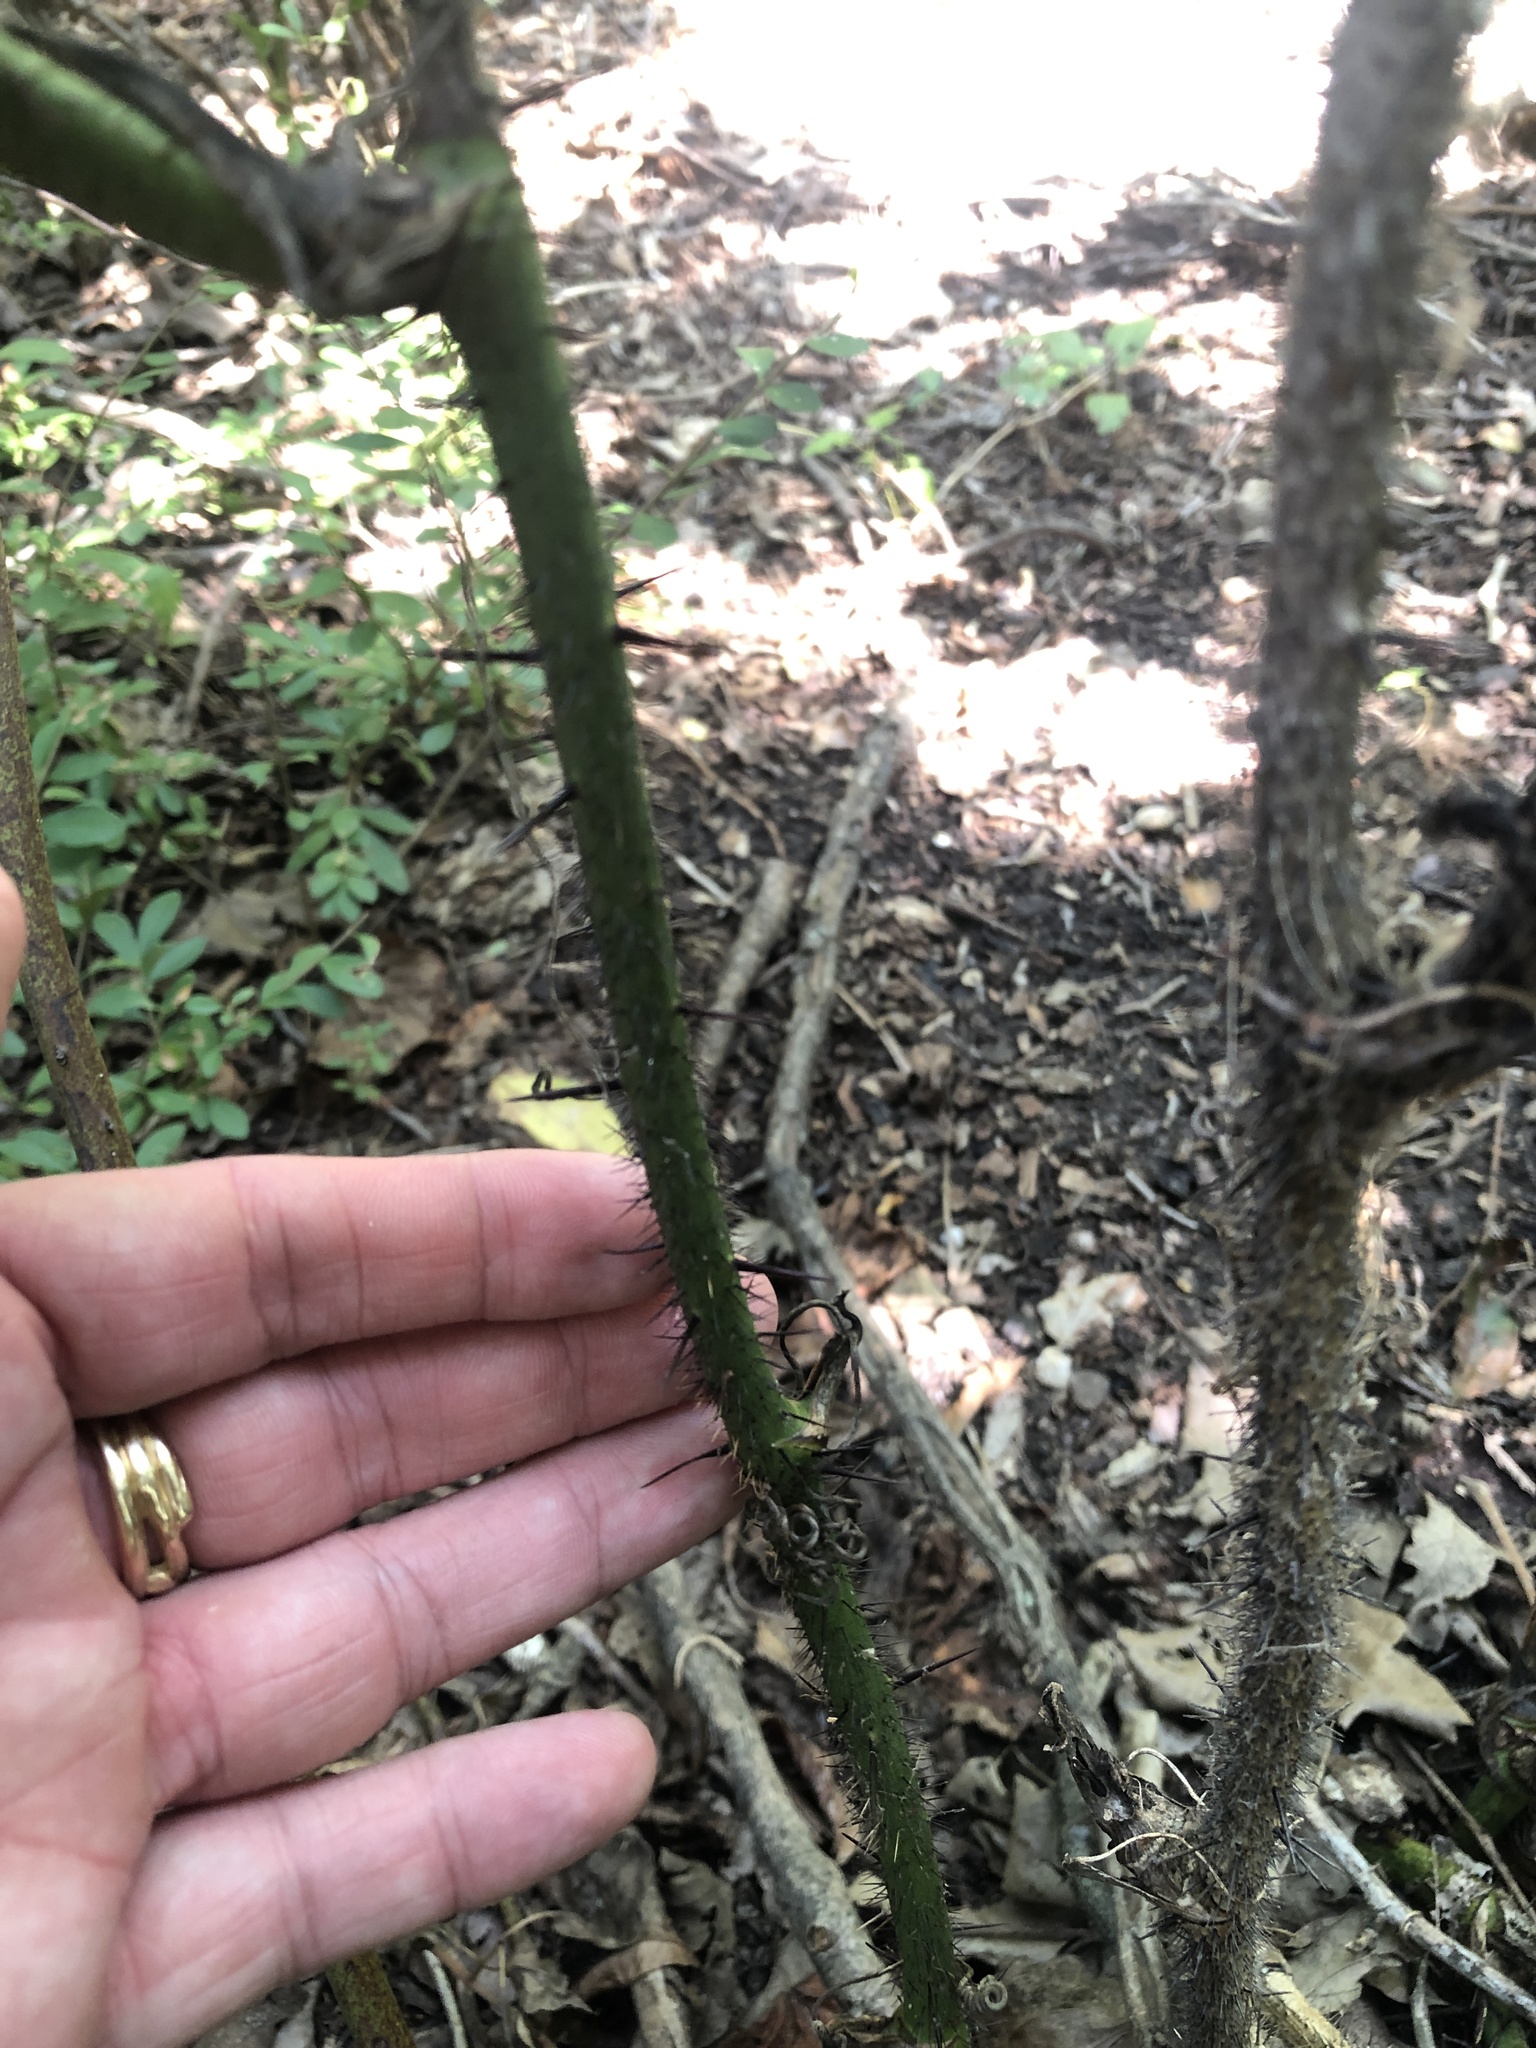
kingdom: Plantae
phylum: Tracheophyta
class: Liliopsida
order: Liliales
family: Smilacaceae
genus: Smilax
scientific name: Smilax tamnoides
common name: Hellfetter
